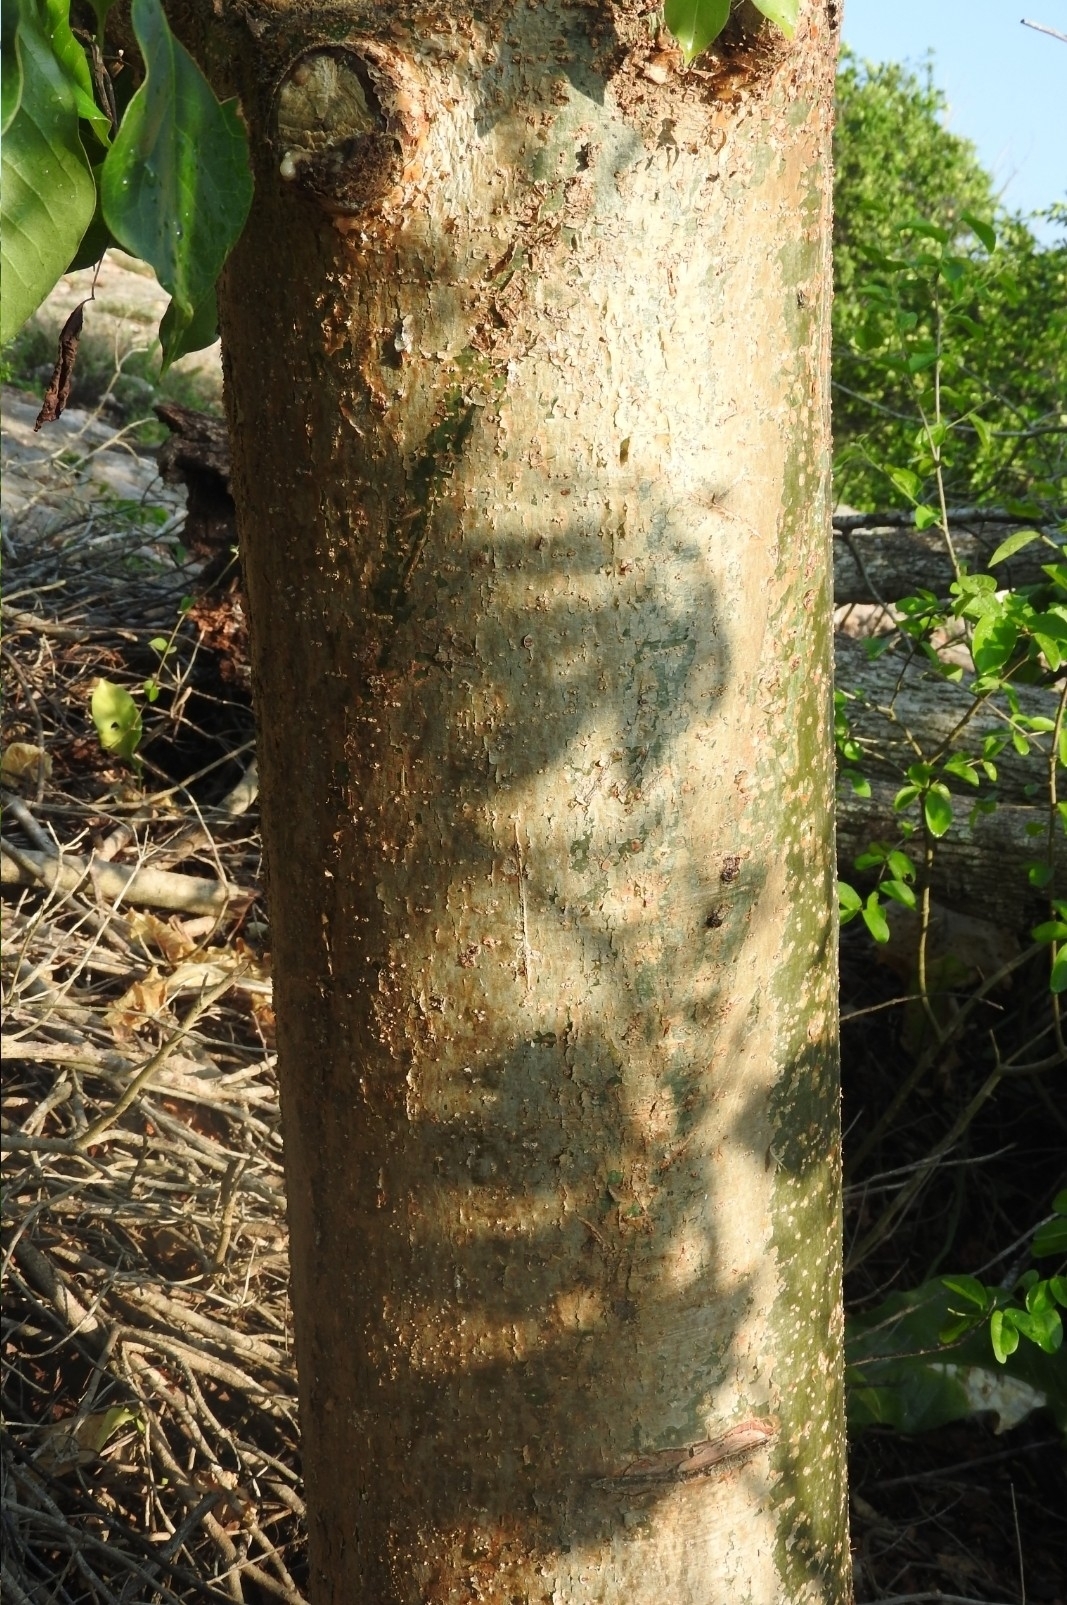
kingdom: Plantae
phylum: Tracheophyta
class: Magnoliopsida
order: Sapindales
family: Burseraceae
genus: Bursera
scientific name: Bursera simaruba
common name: Turpentine tree
